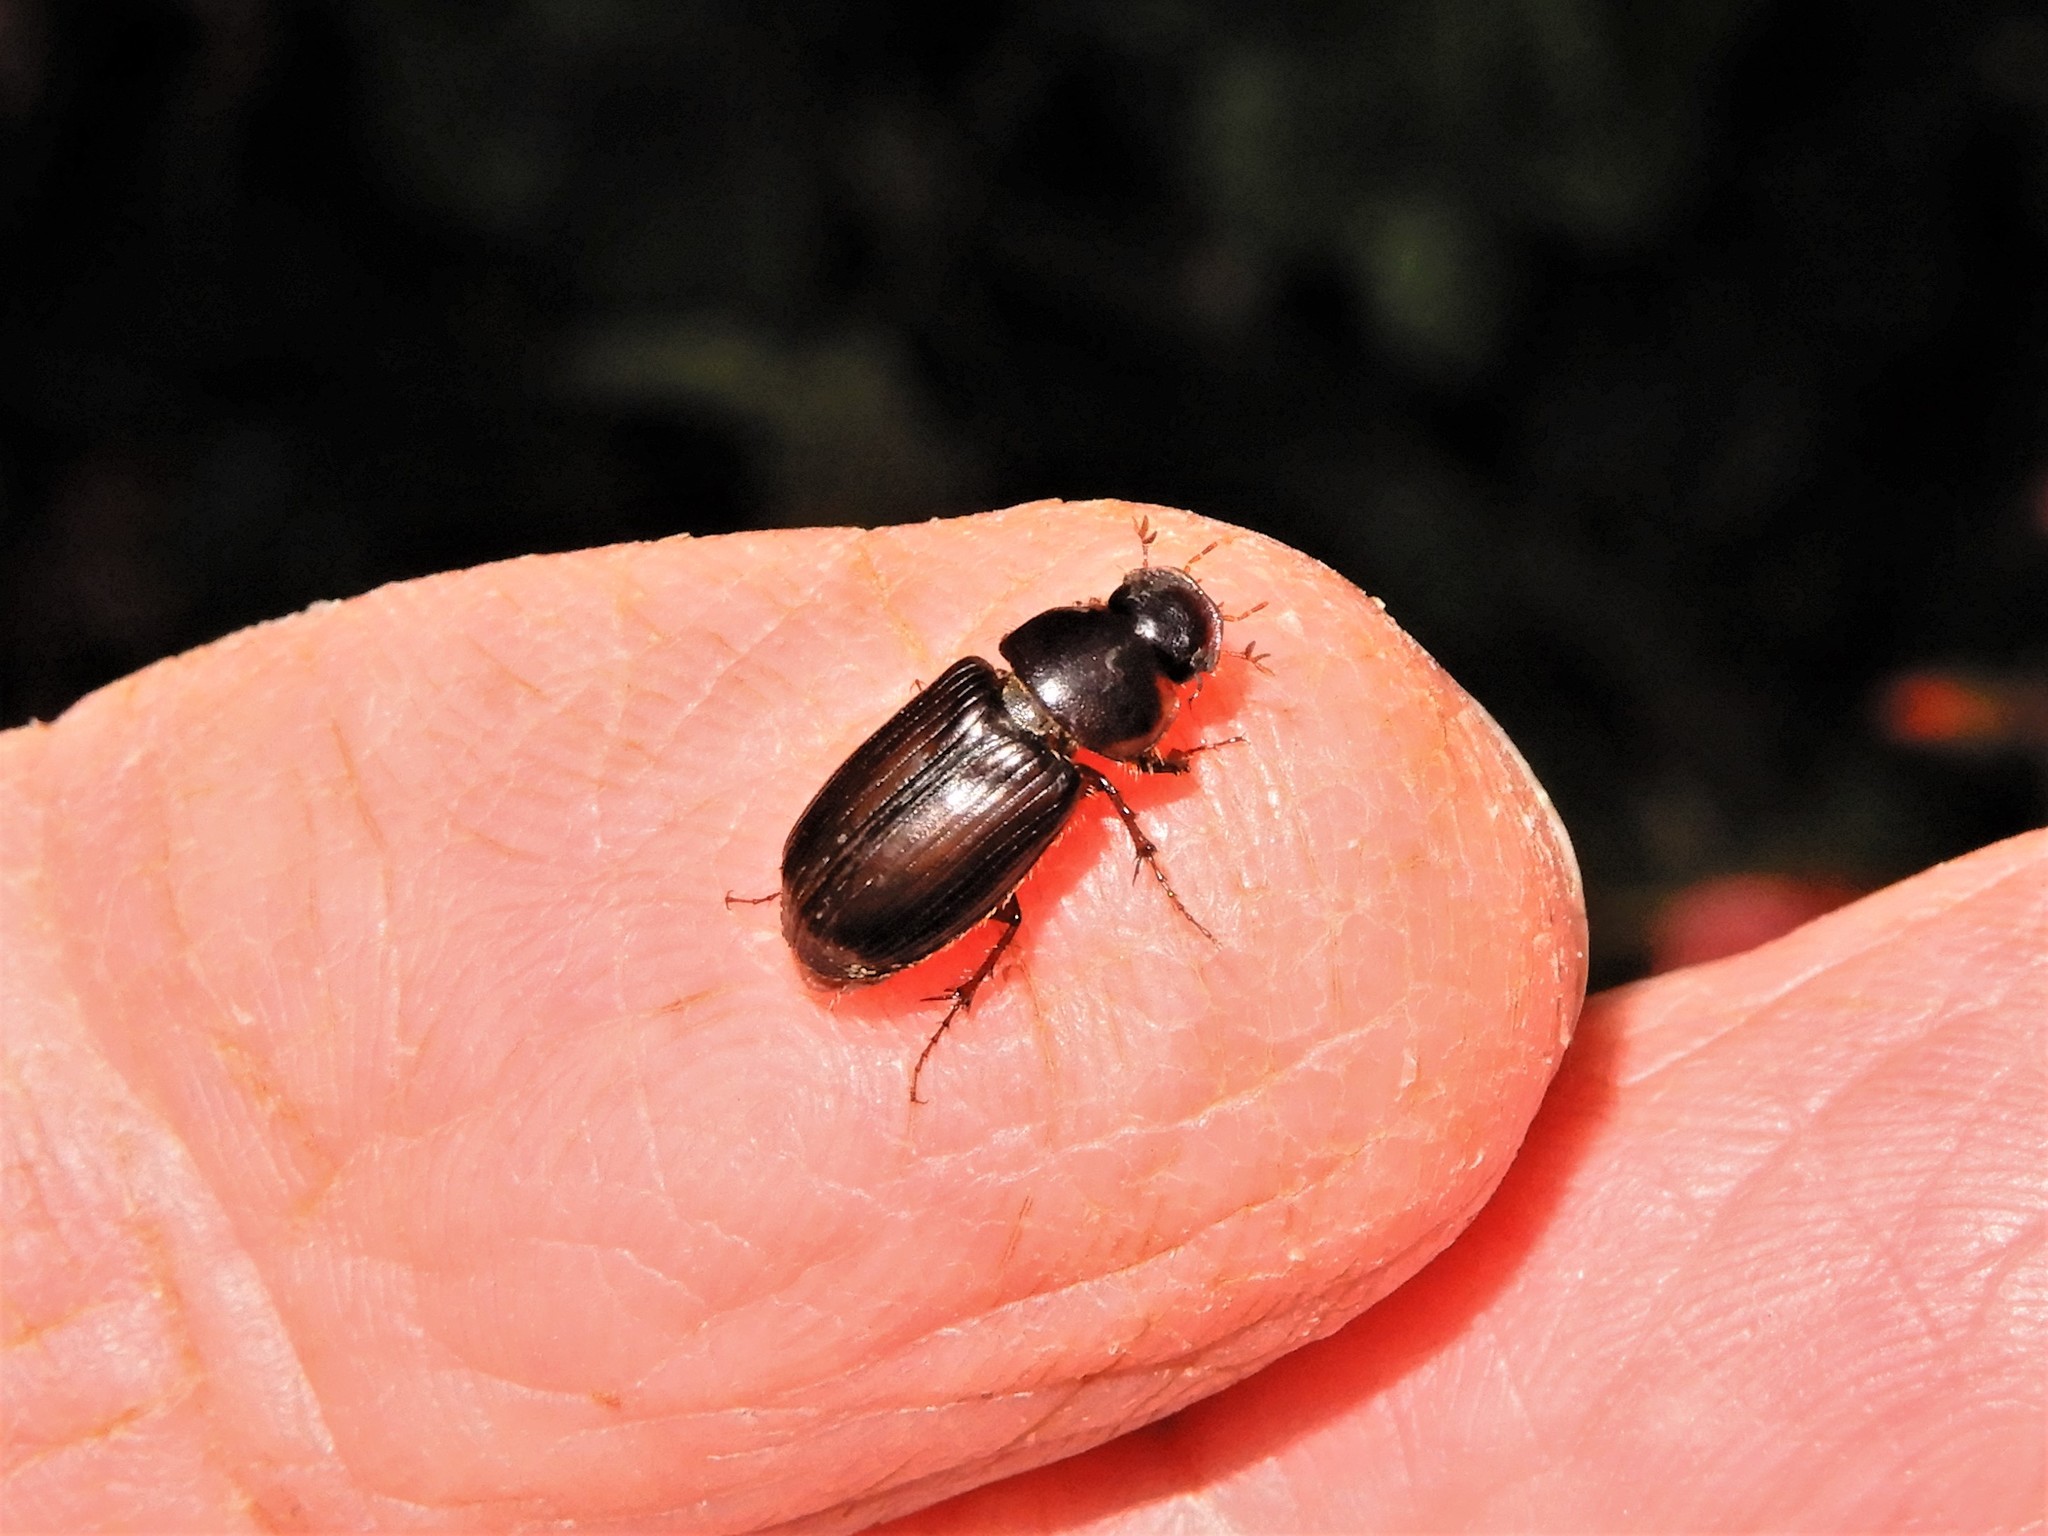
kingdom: Animalia
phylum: Arthropoda
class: Insecta
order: Coleoptera
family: Scarabaeidae
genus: Acrossidius
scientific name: Acrossidius tasmaniae
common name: Black-headed pasture cockchafer
